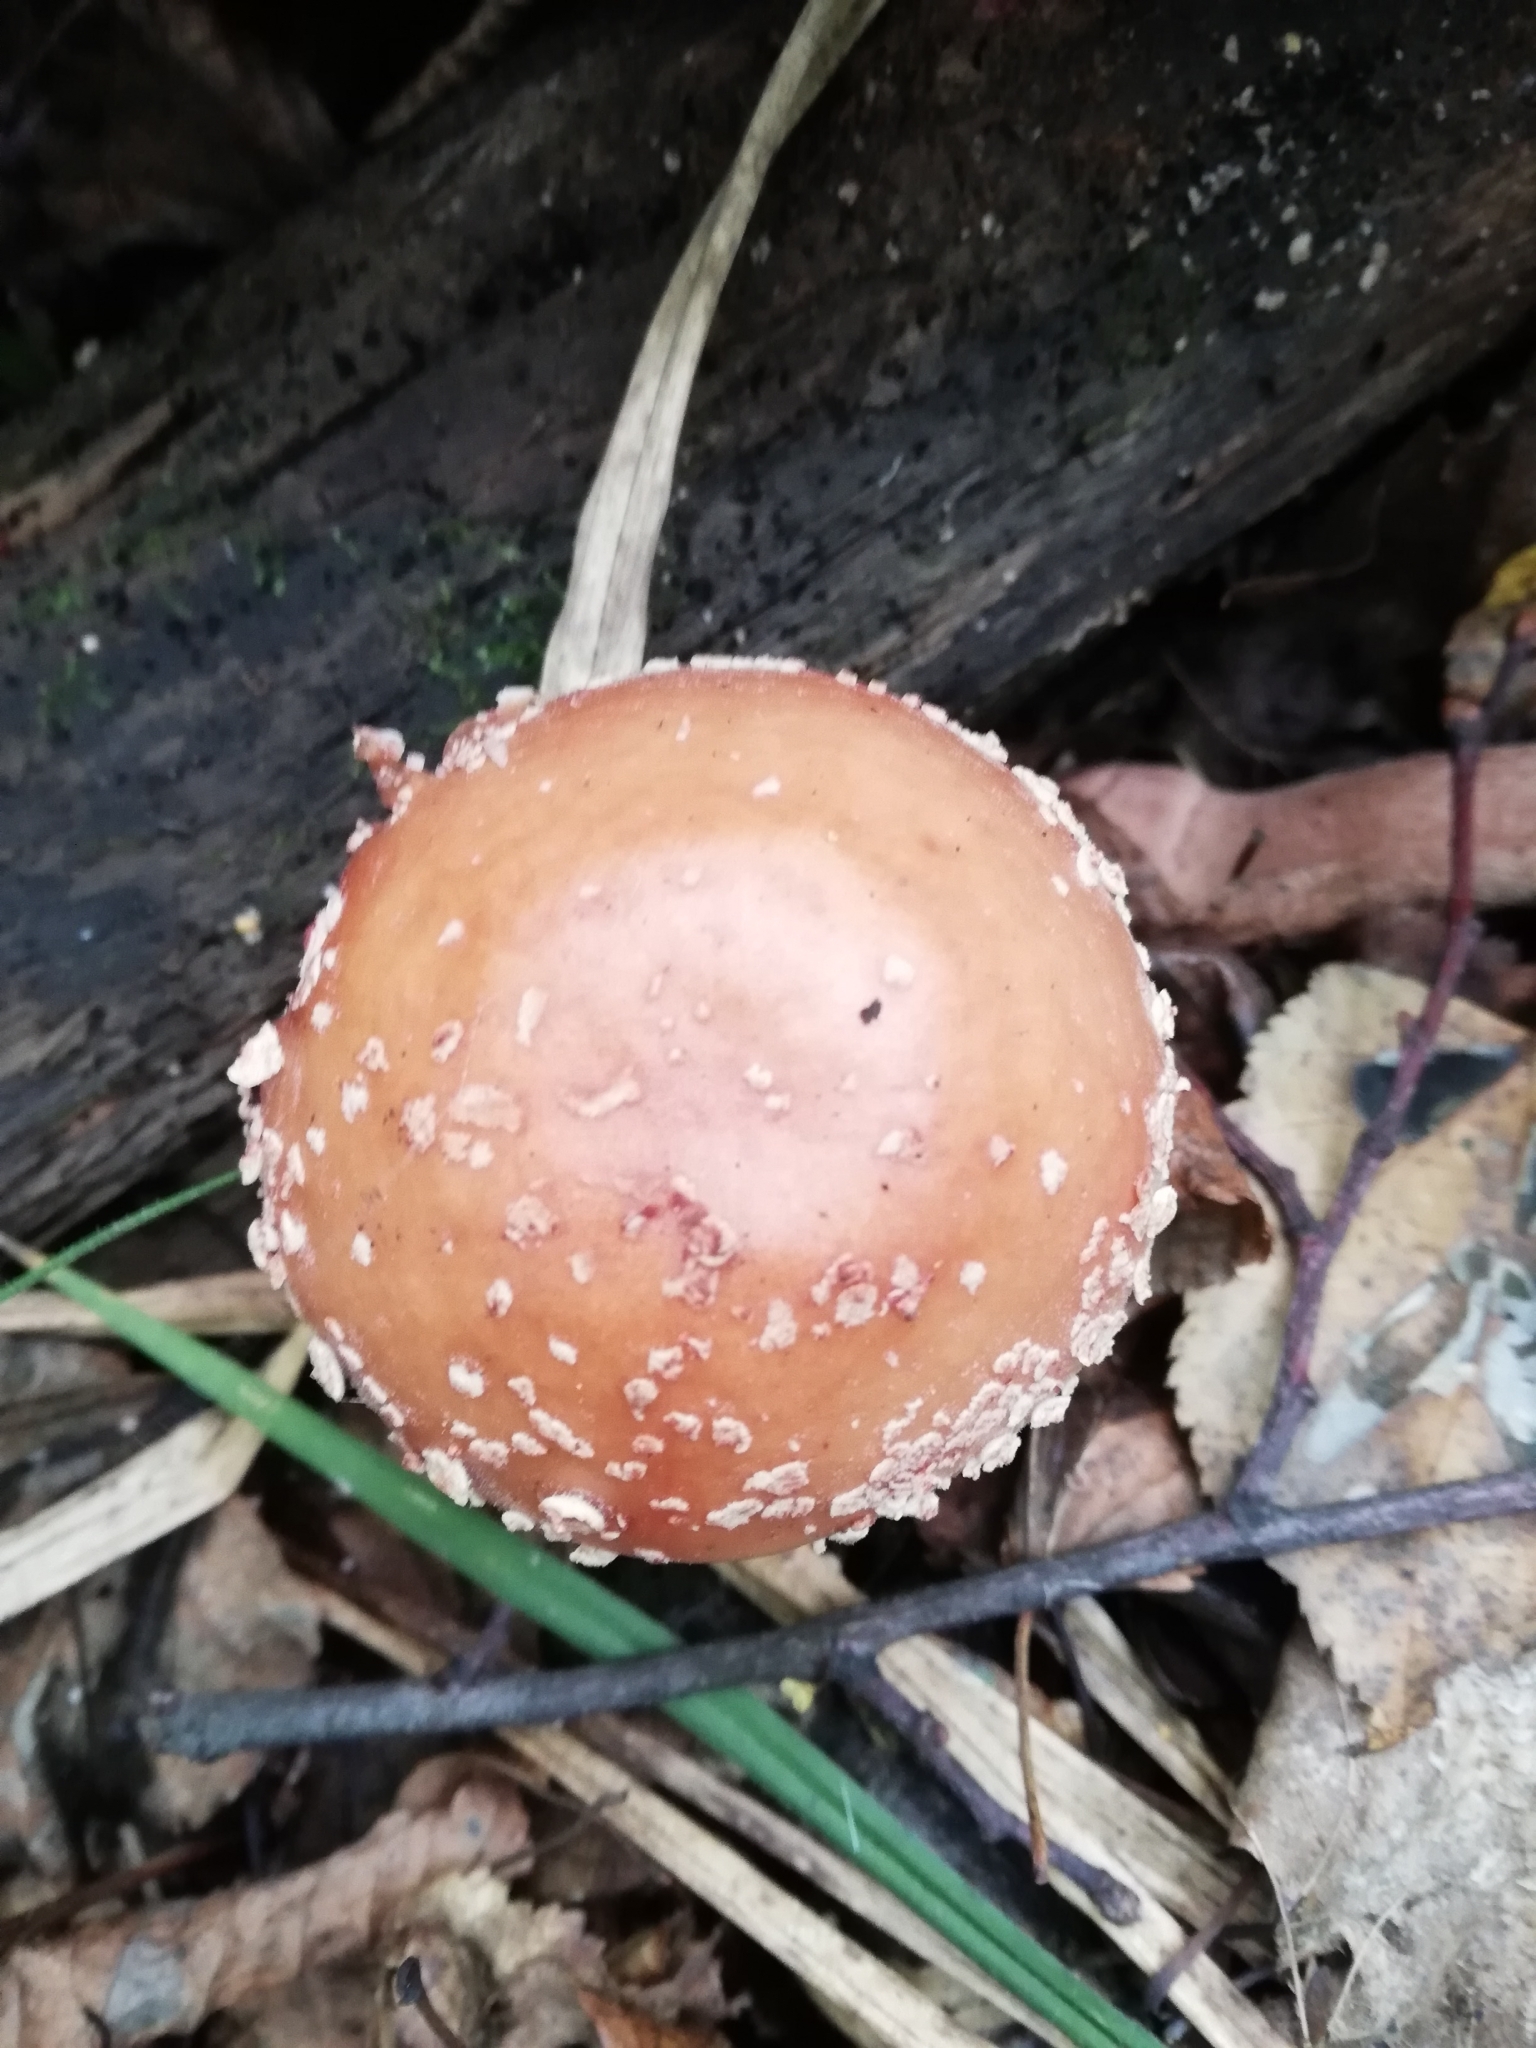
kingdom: Fungi
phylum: Basidiomycota
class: Agaricomycetes
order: Agaricales
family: Amanitaceae
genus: Amanita
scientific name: Amanita rubescens
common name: Blusher
